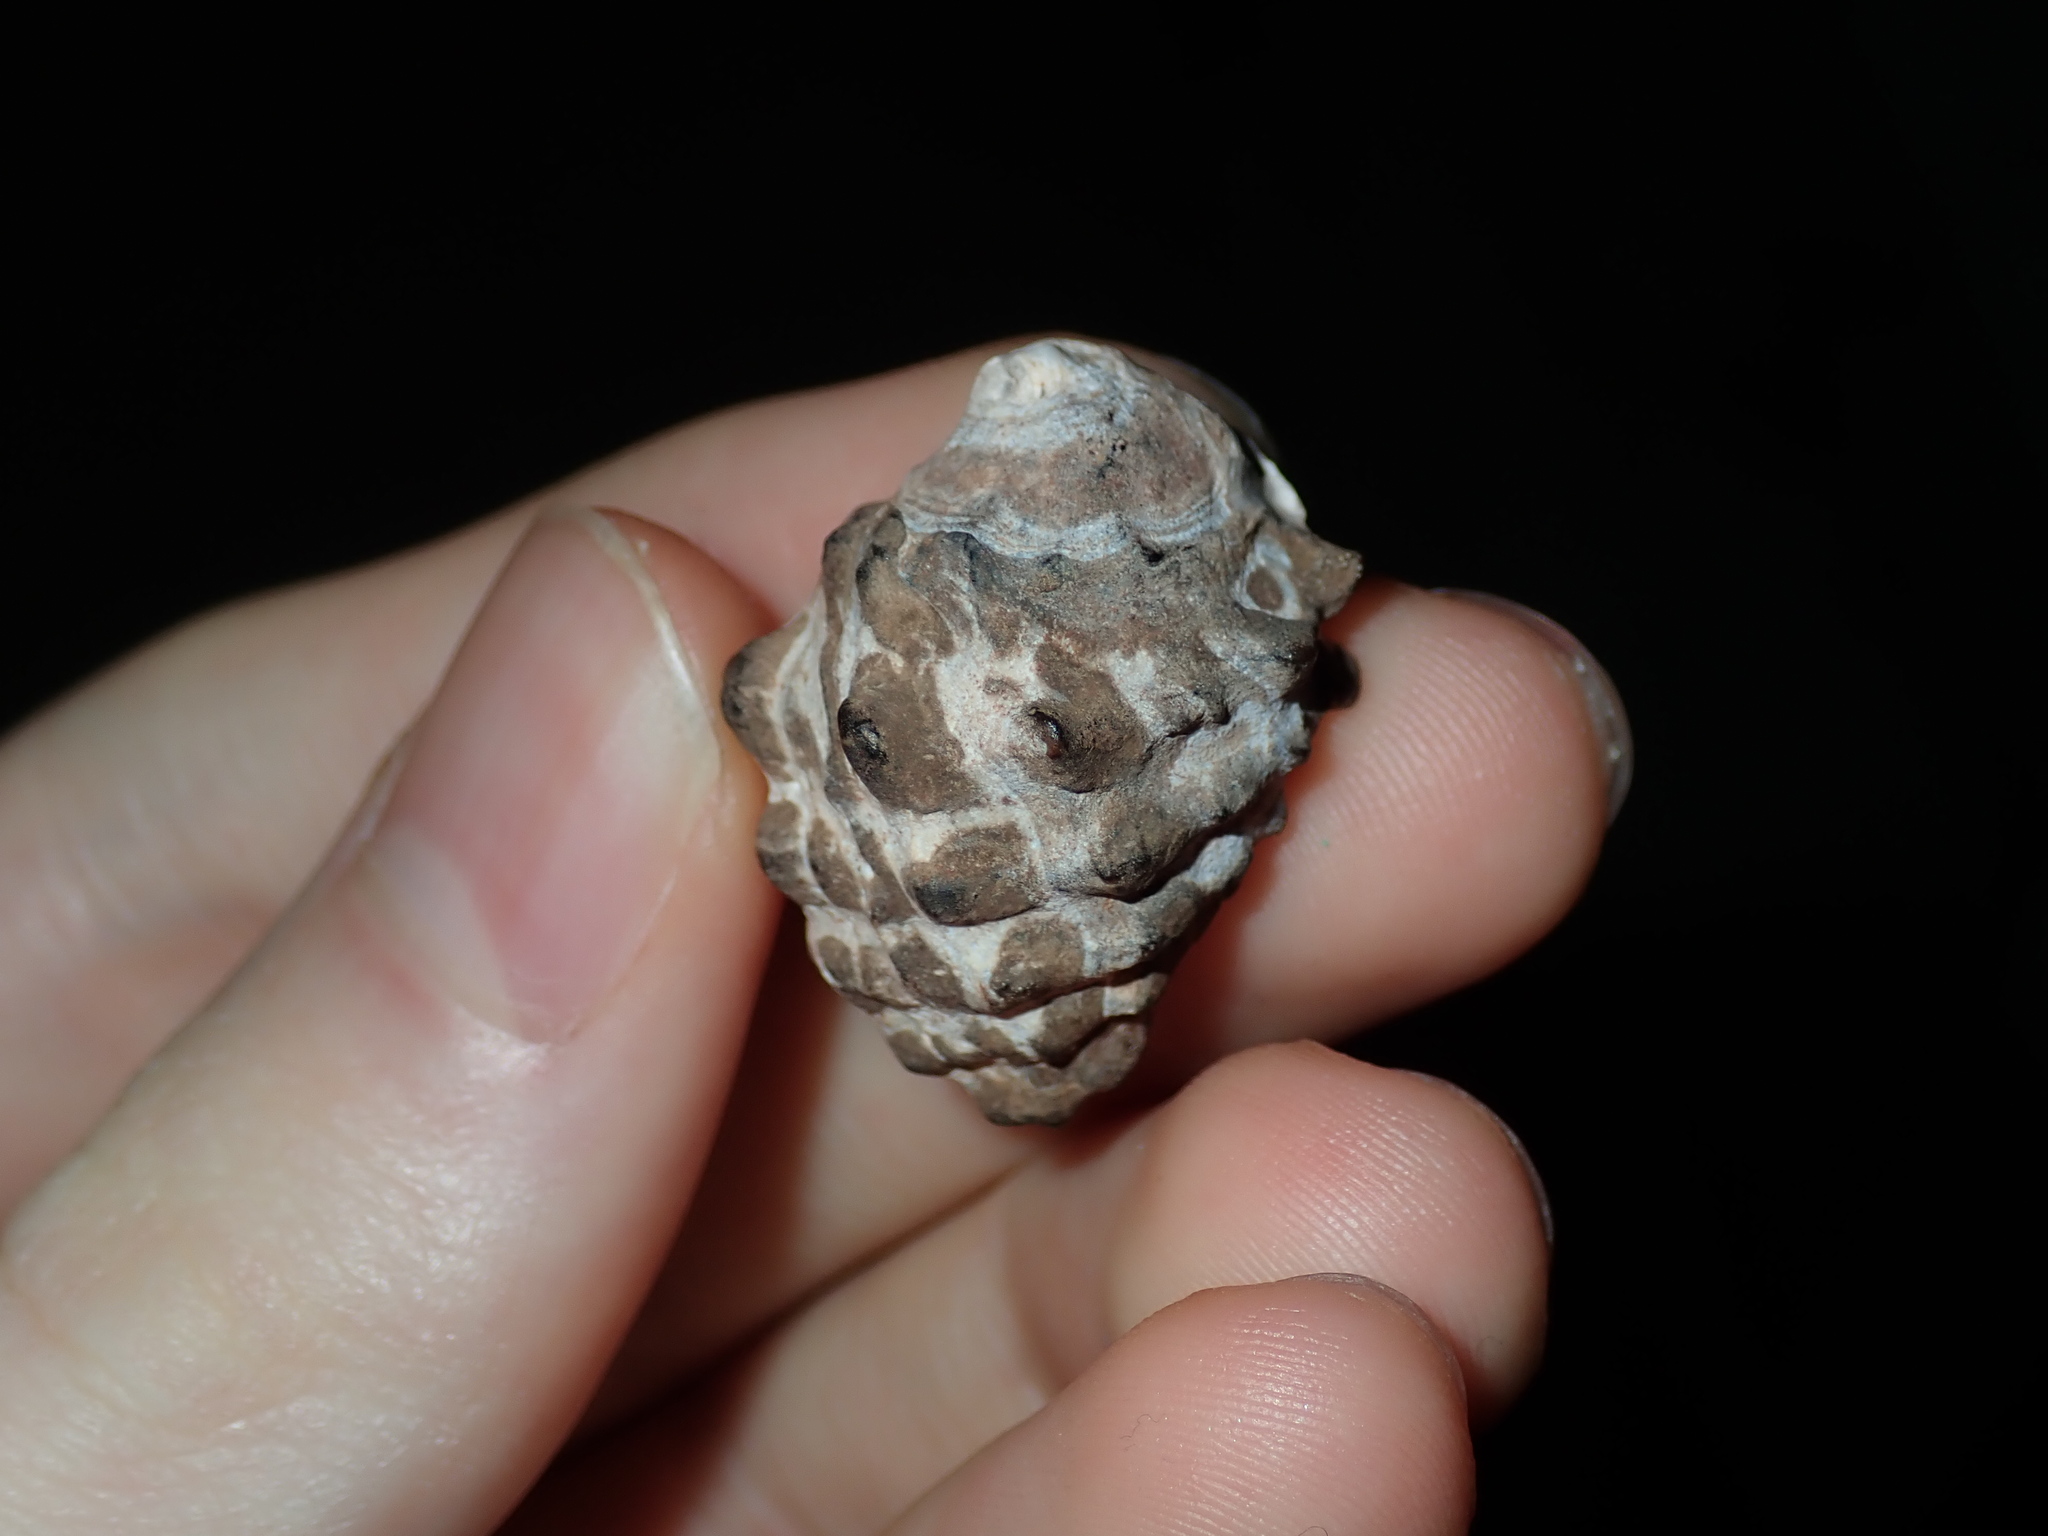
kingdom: Animalia
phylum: Mollusca
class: Gastropoda
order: Neogastropoda
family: Muricidae
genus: Tenguella
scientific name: Tenguella marginalba
